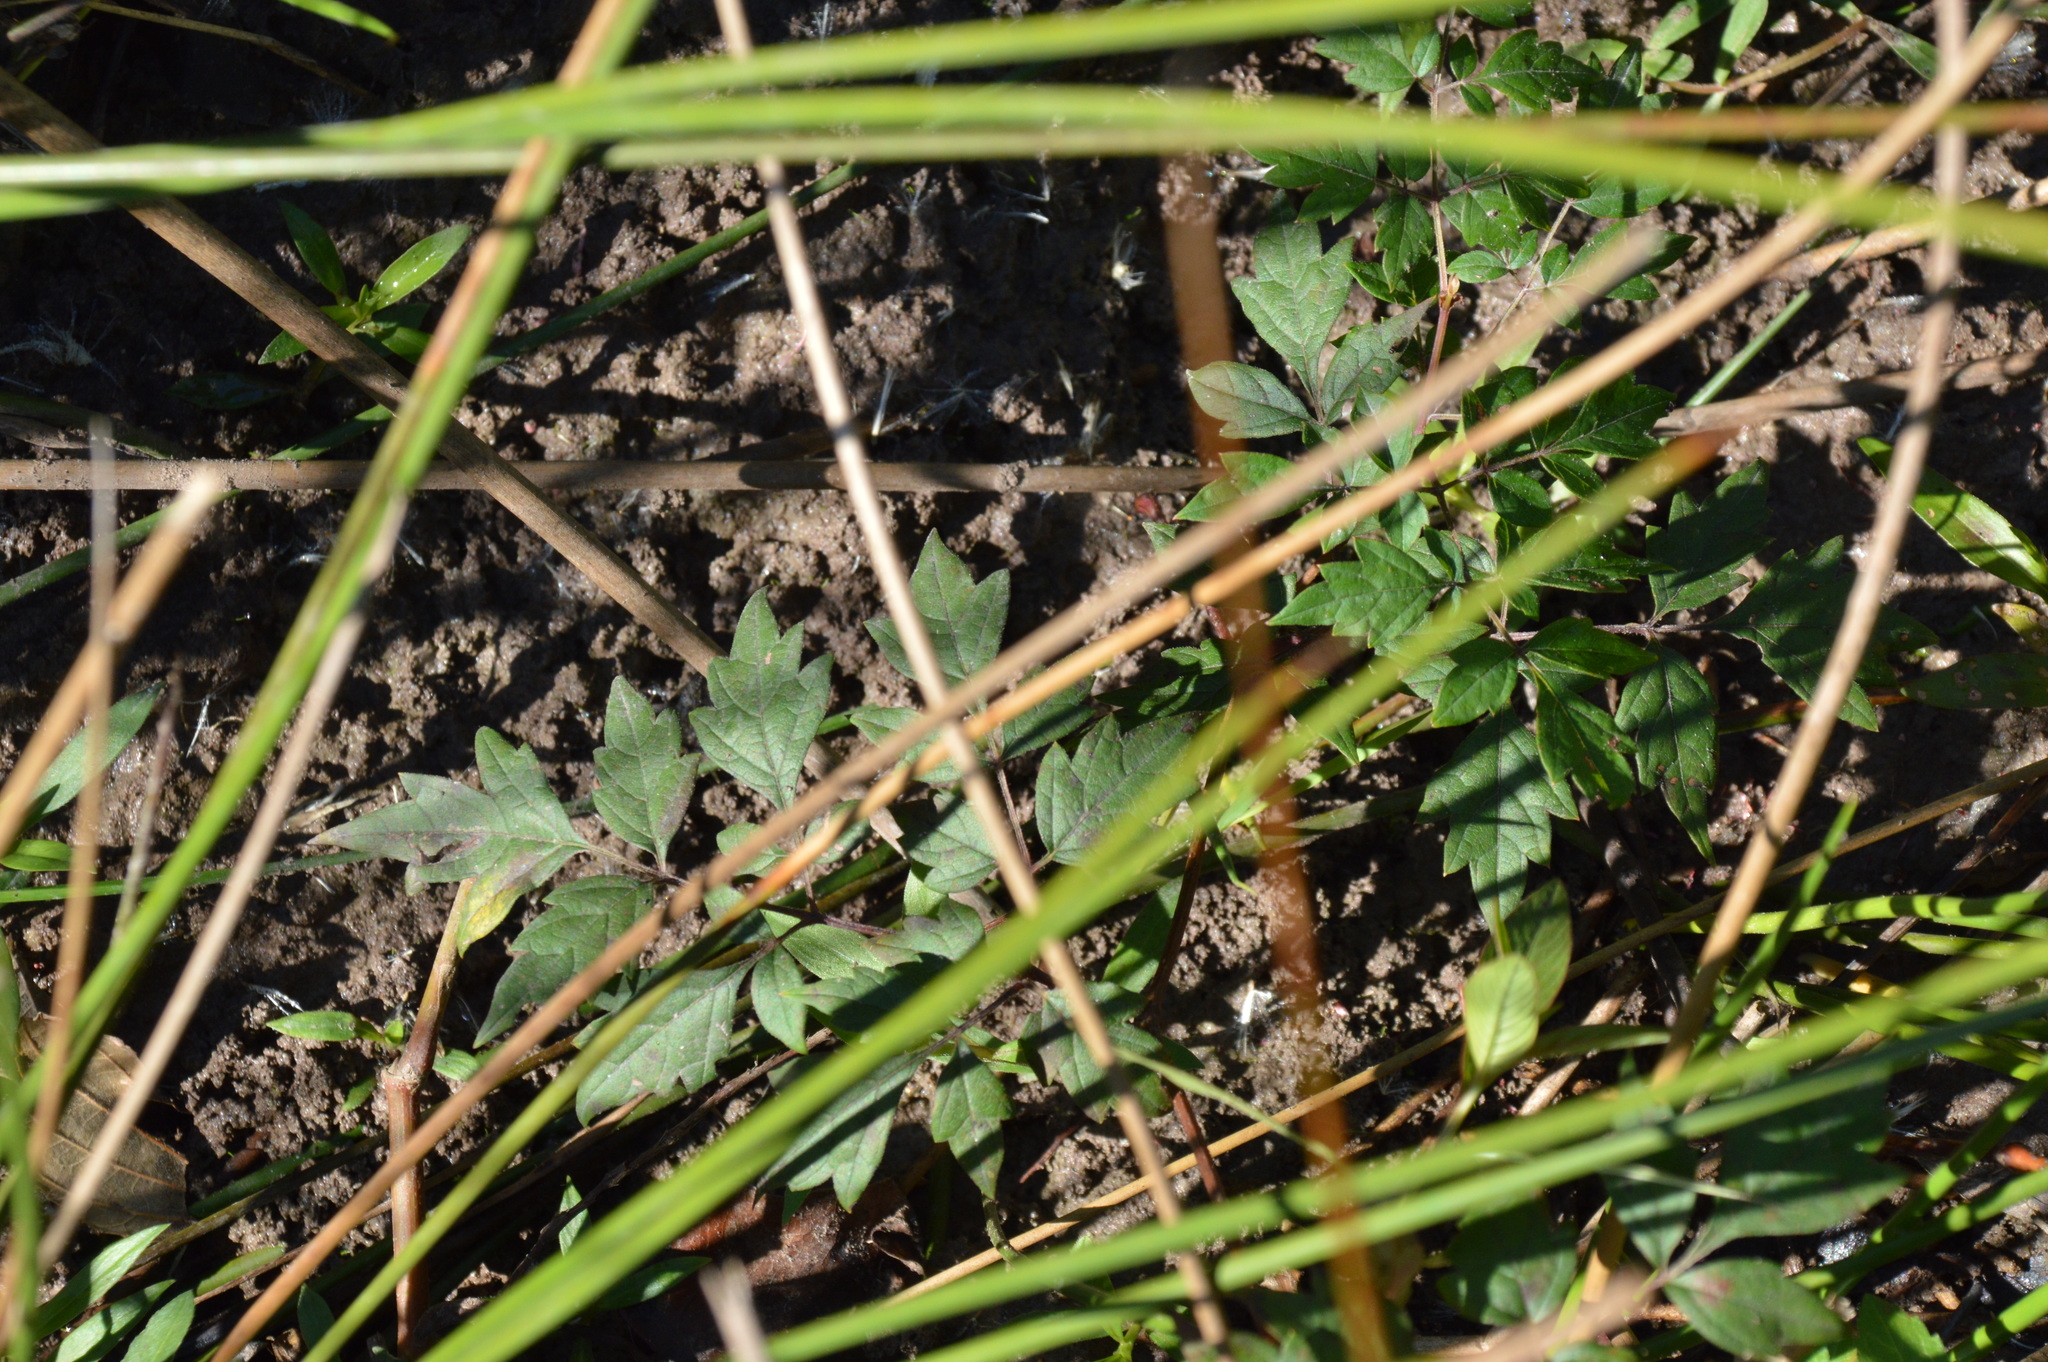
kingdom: Plantae
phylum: Tracheophyta
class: Magnoliopsida
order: Vitales
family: Vitaceae
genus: Nekemias
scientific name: Nekemias arborea
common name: Peppervine
